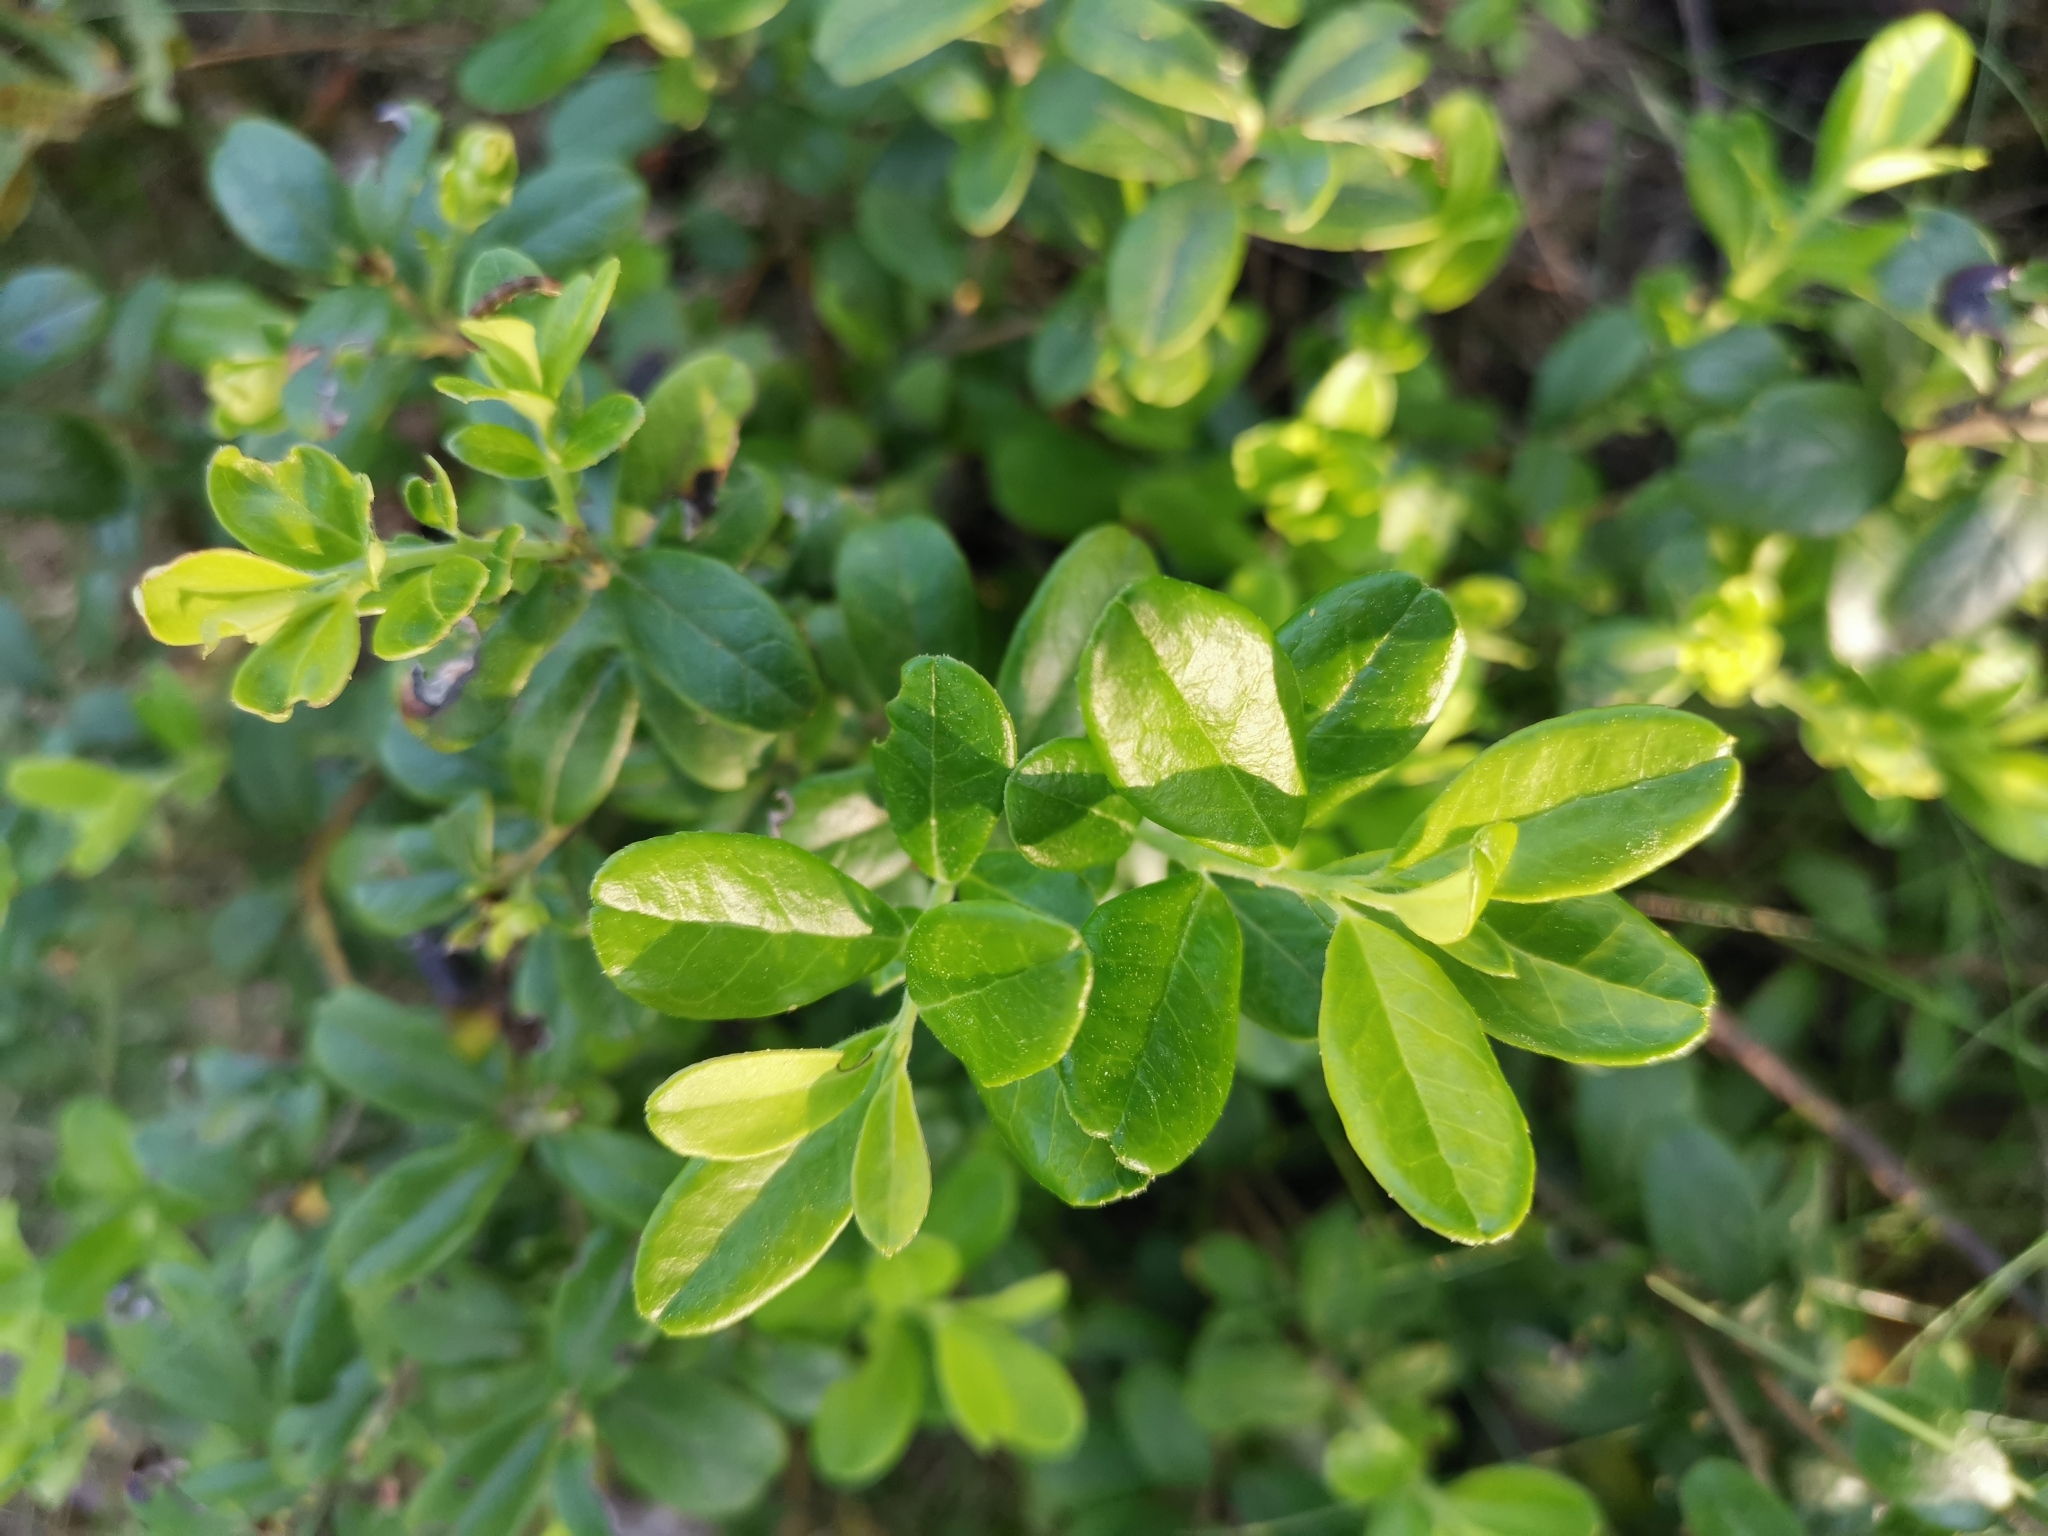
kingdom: Plantae
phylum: Tracheophyta
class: Magnoliopsida
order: Ericales
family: Ericaceae
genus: Vaccinium
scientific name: Vaccinium vitis-idaea
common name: Cowberry
